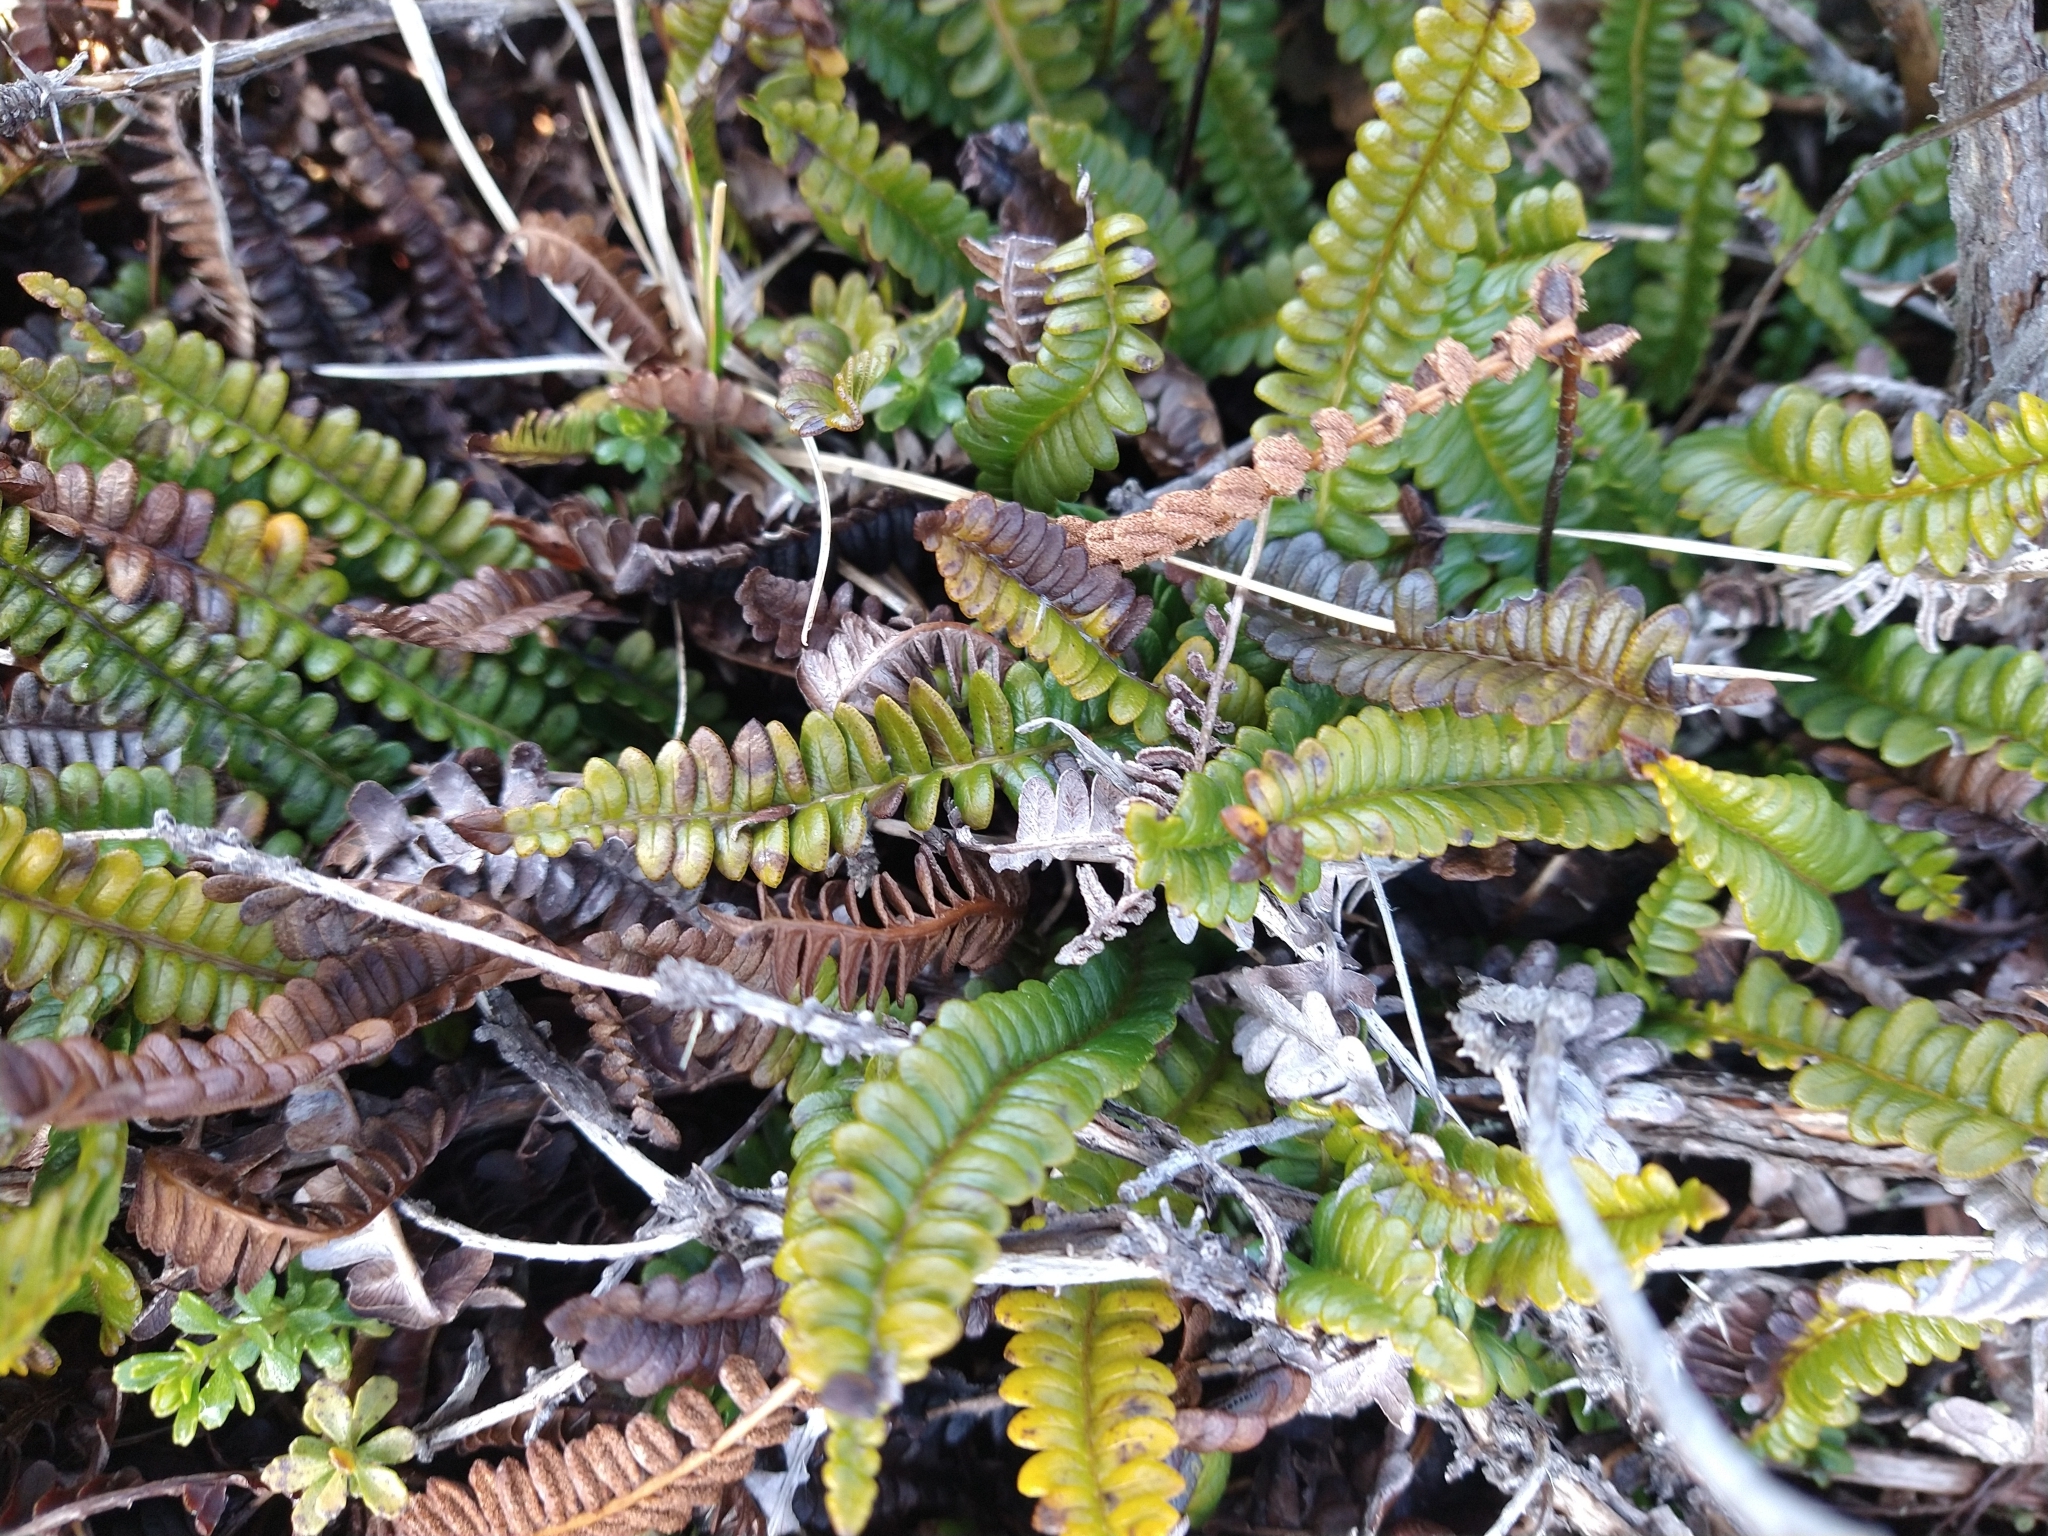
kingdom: Plantae
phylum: Tracheophyta
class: Polypodiopsida
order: Polypodiales
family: Blechnaceae
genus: Austroblechnum
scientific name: Austroblechnum penna-marina
